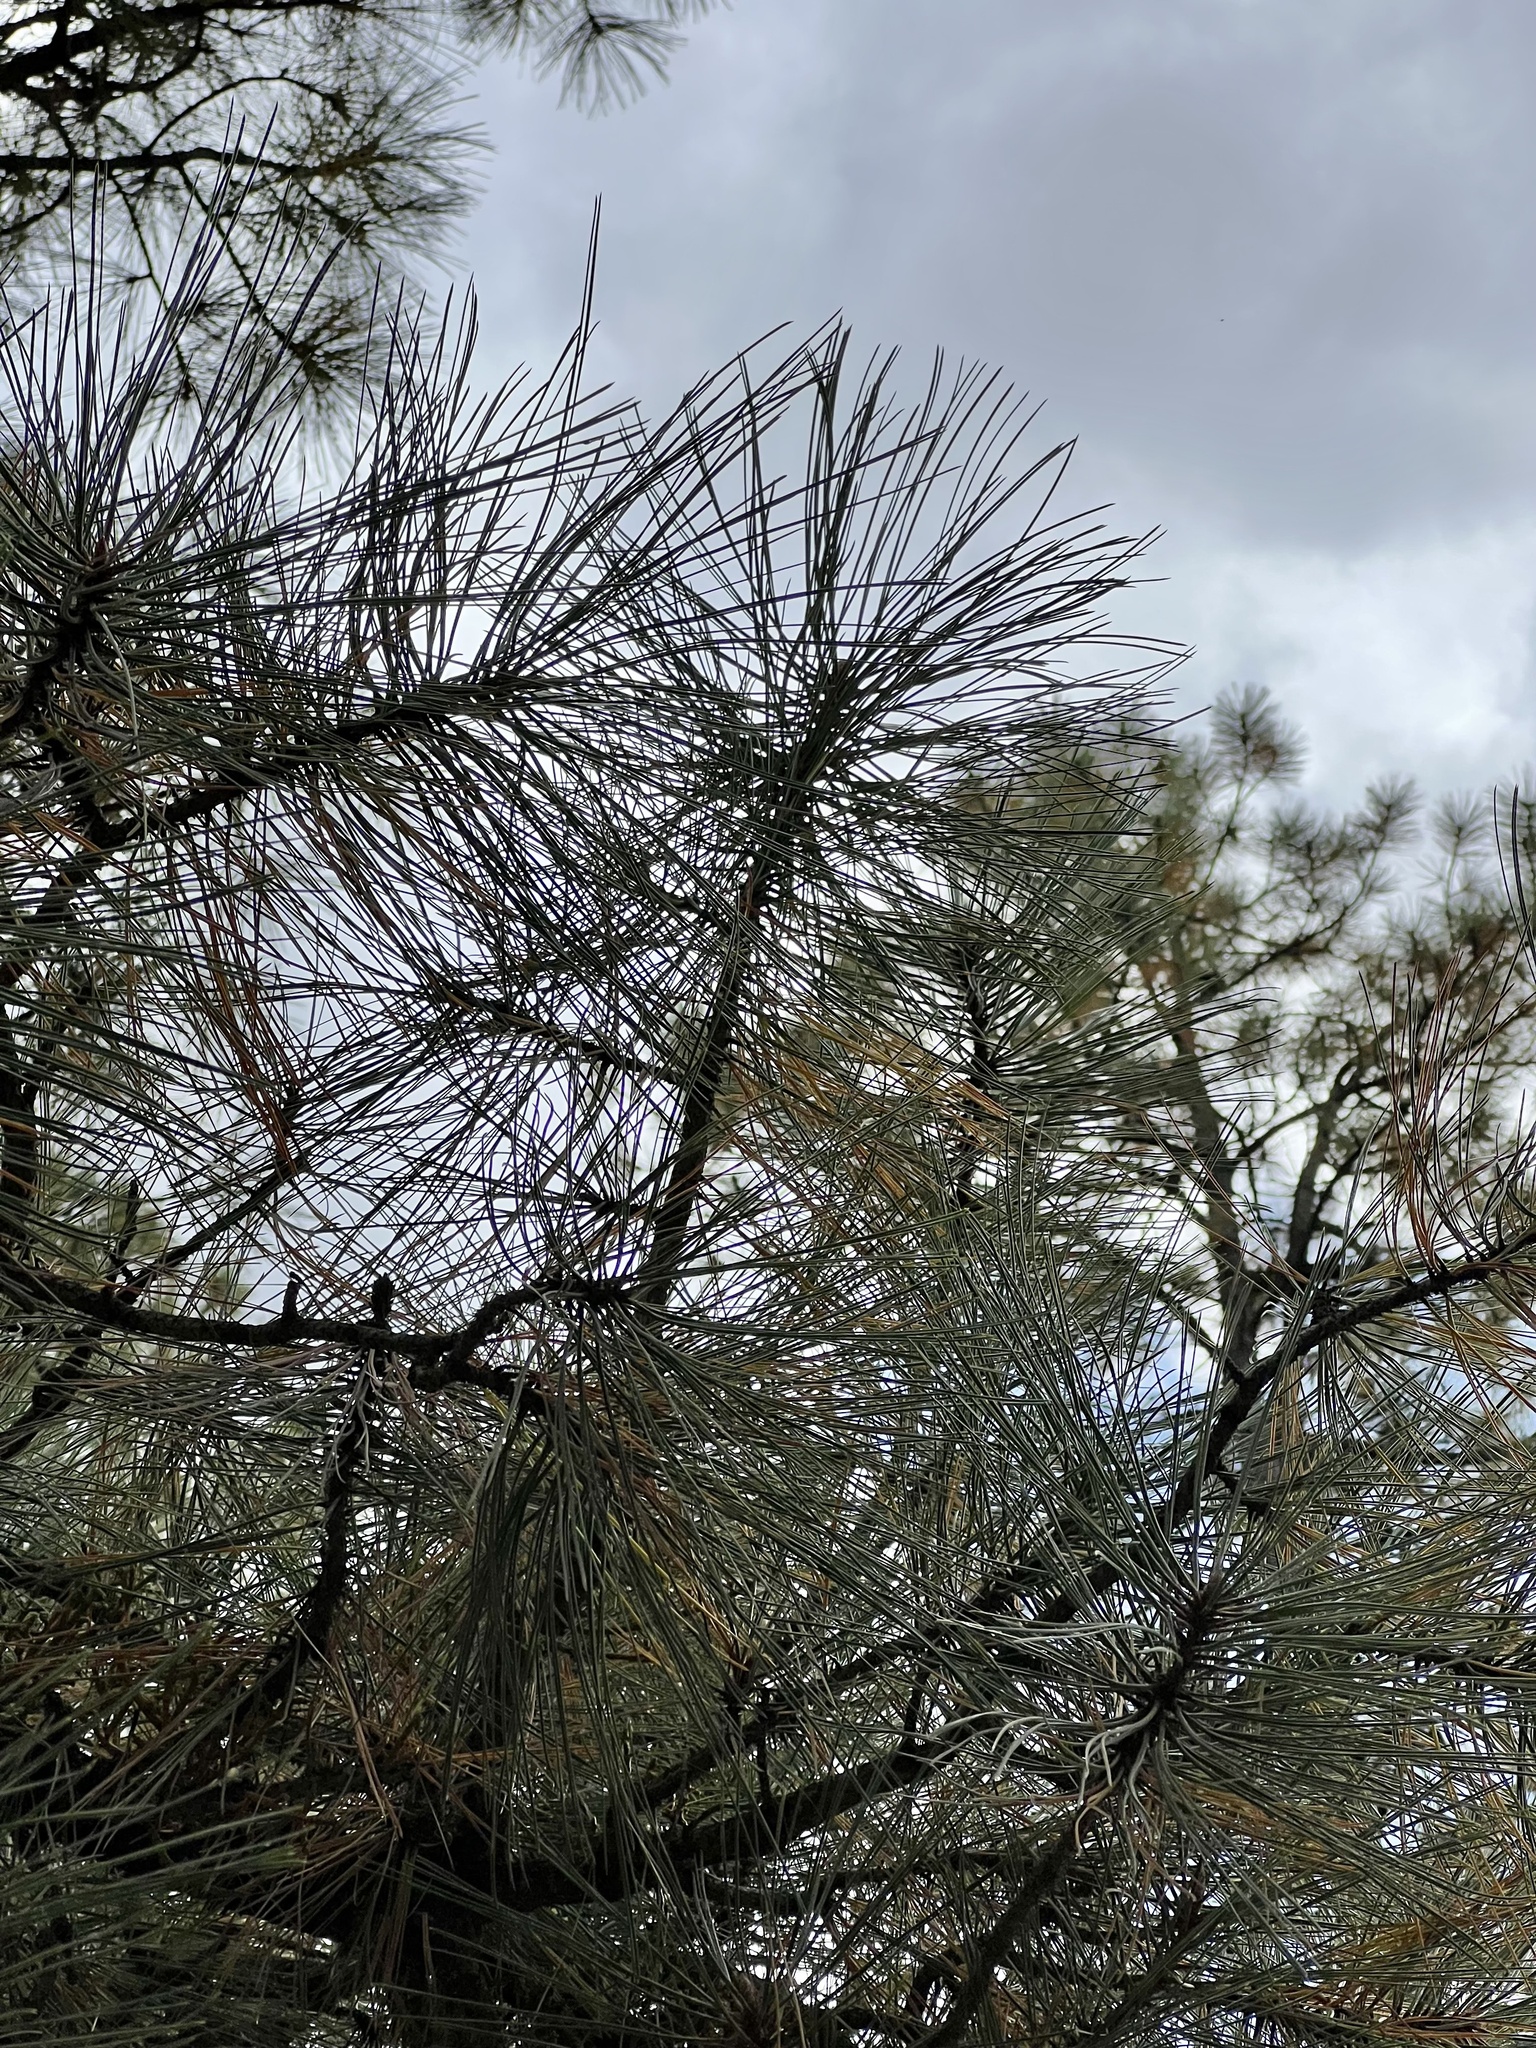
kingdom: Plantae
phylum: Tracheophyta
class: Pinopsida
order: Pinales
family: Pinaceae
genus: Pinus
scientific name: Pinus ponderosa
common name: Western yellow-pine
